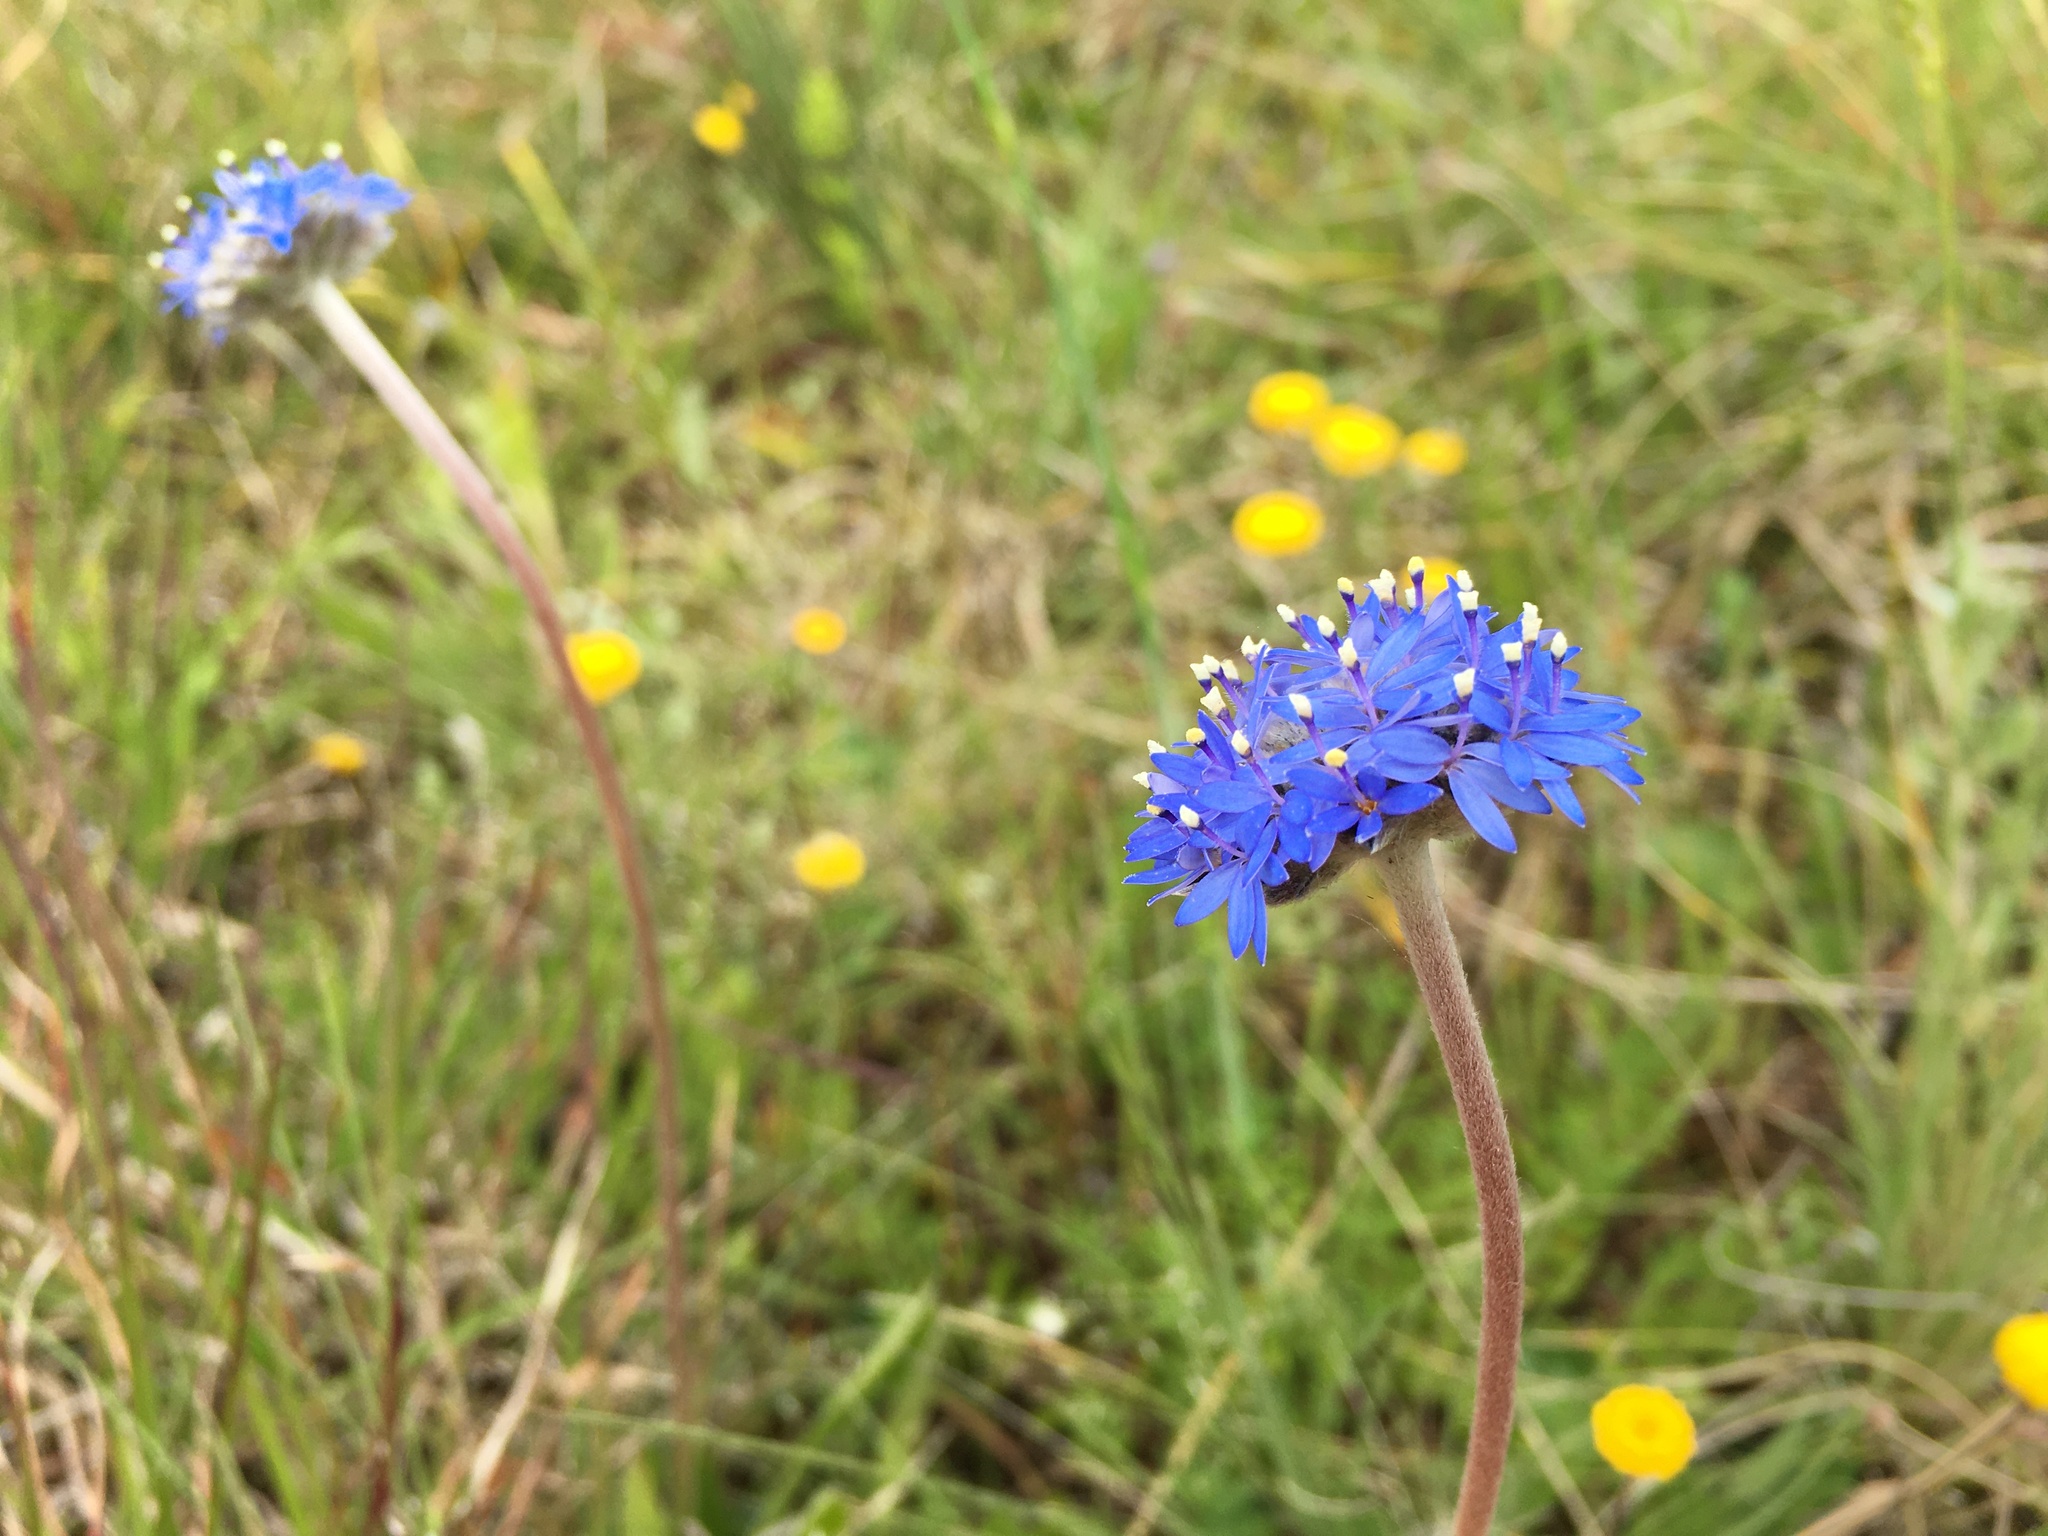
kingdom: Plantae
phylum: Tracheophyta
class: Magnoliopsida
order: Asterales
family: Goodeniaceae
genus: Brunonia
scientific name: Brunonia australis
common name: Blue pincushion
